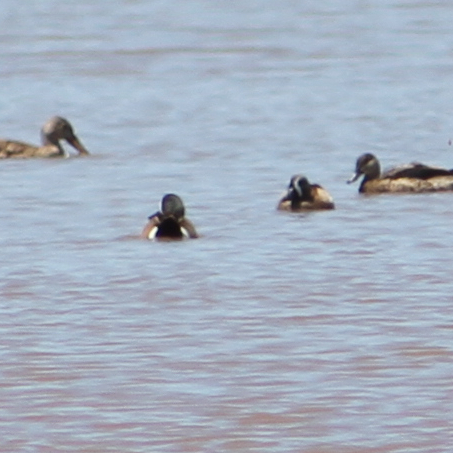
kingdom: Animalia
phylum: Chordata
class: Aves
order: Anseriformes
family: Anatidae
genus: Spatula
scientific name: Spatula discors
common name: Blue-winged teal
